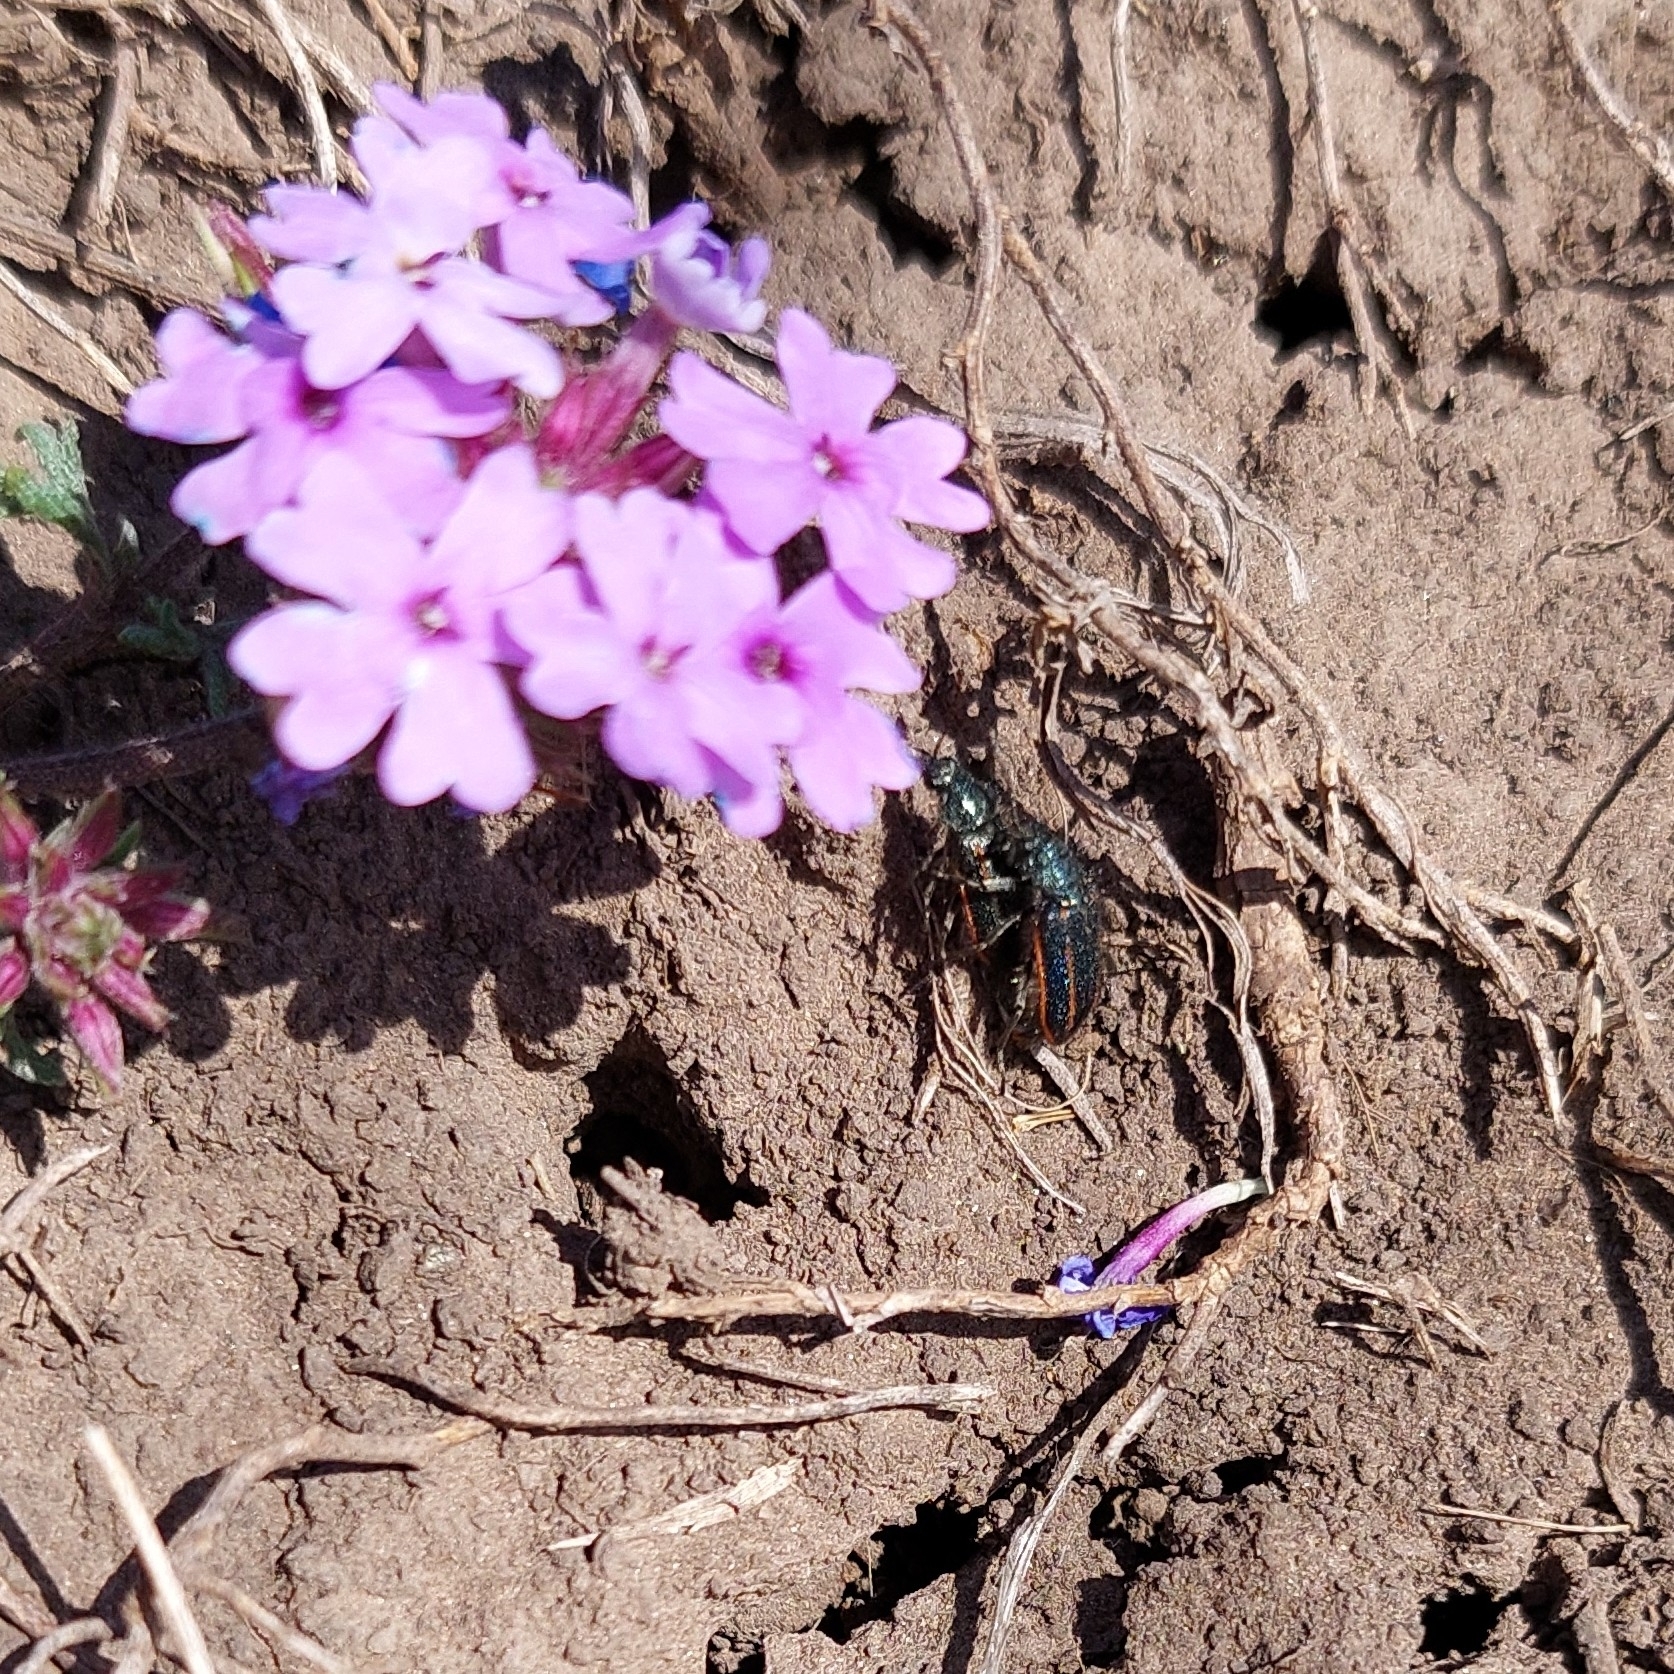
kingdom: Animalia
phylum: Arthropoda
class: Insecta
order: Coleoptera
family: Melyridae
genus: Astylus
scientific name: Astylus
